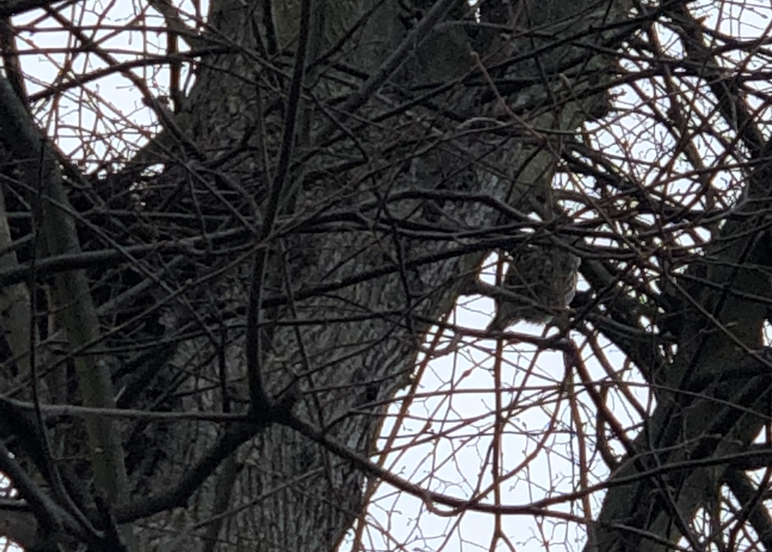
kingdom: Animalia
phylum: Chordata
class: Aves
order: Strigiformes
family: Strigidae
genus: Athene
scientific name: Athene noctua
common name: Little owl
